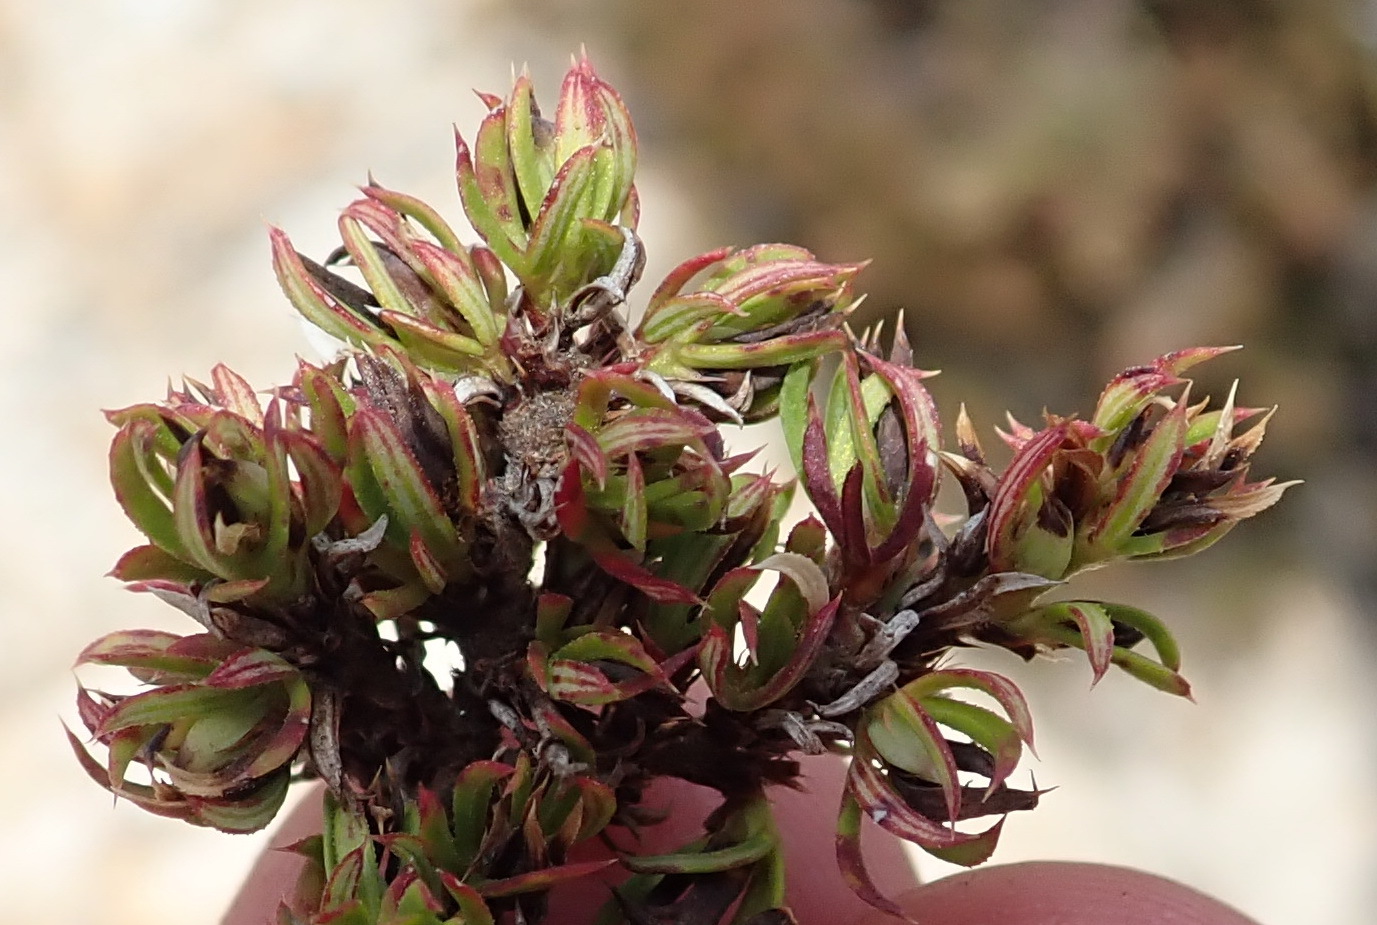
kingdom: Plantae
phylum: Tracheophyta
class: Magnoliopsida
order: Rosales
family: Rosaceae
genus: Cliffortia
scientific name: Cliffortia arcuata
